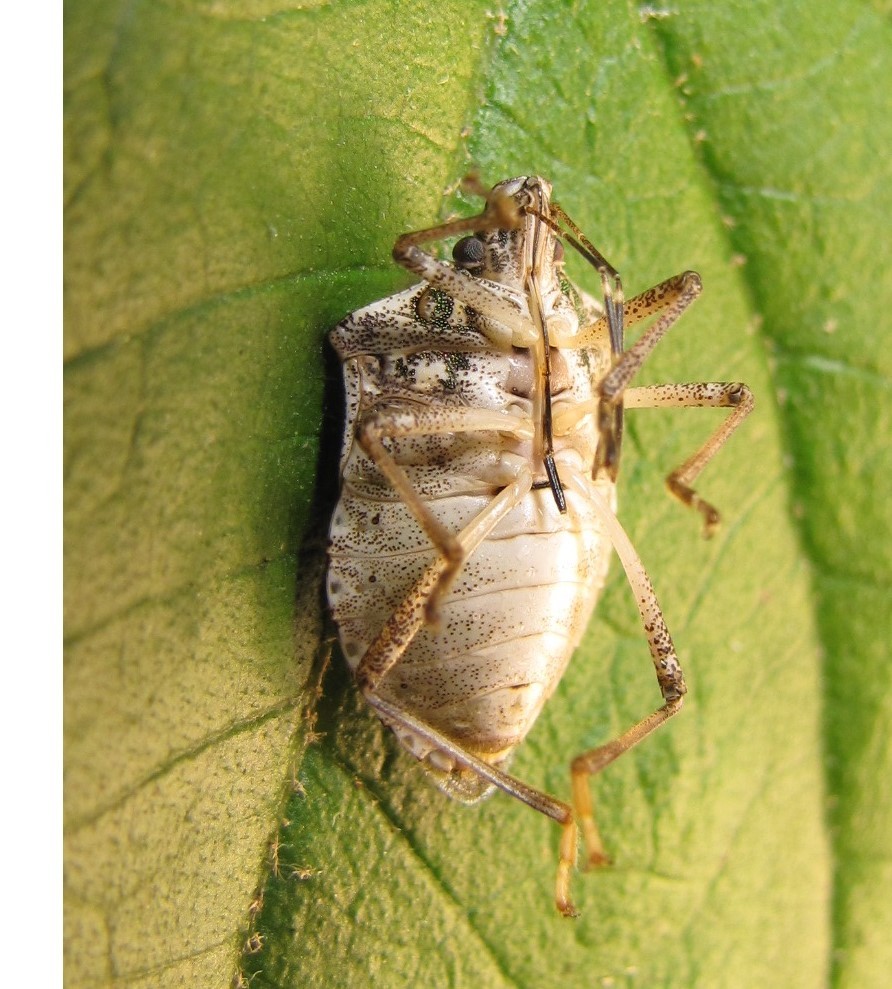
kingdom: Animalia
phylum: Arthropoda
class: Insecta
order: Hemiptera
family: Pentatomidae
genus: Halyomorpha
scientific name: Halyomorpha halys
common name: Brown marmorated stink bug
